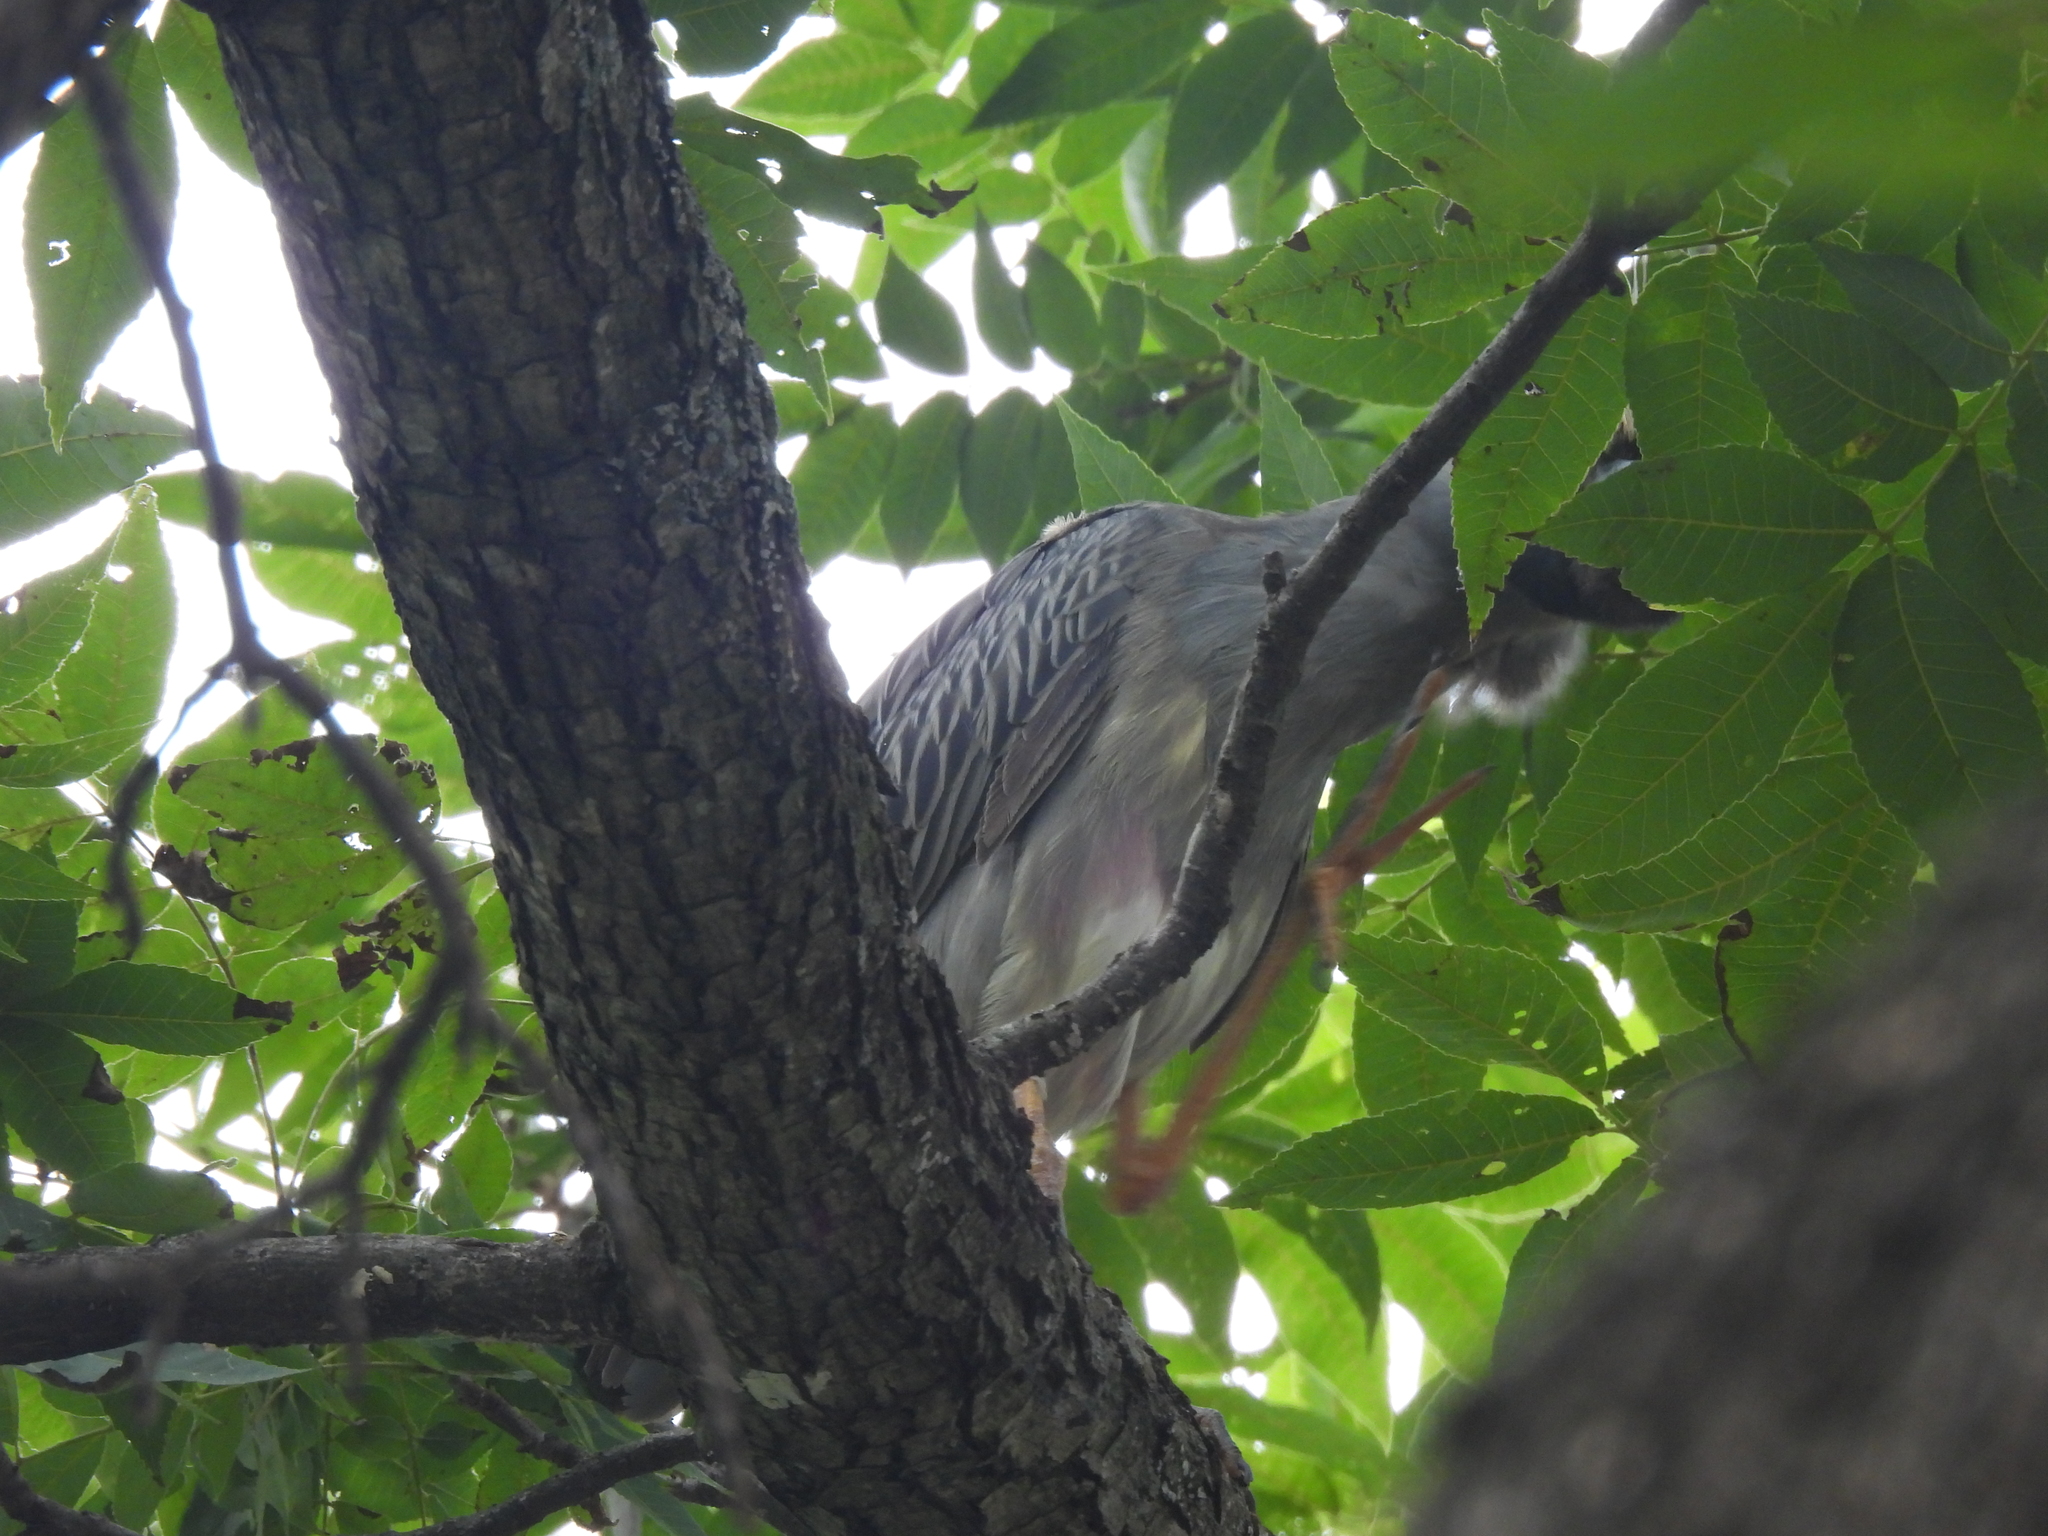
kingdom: Animalia
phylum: Chordata
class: Aves
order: Pelecaniformes
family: Ardeidae
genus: Nyctanassa
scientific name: Nyctanassa violacea
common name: Yellow-crowned night heron
